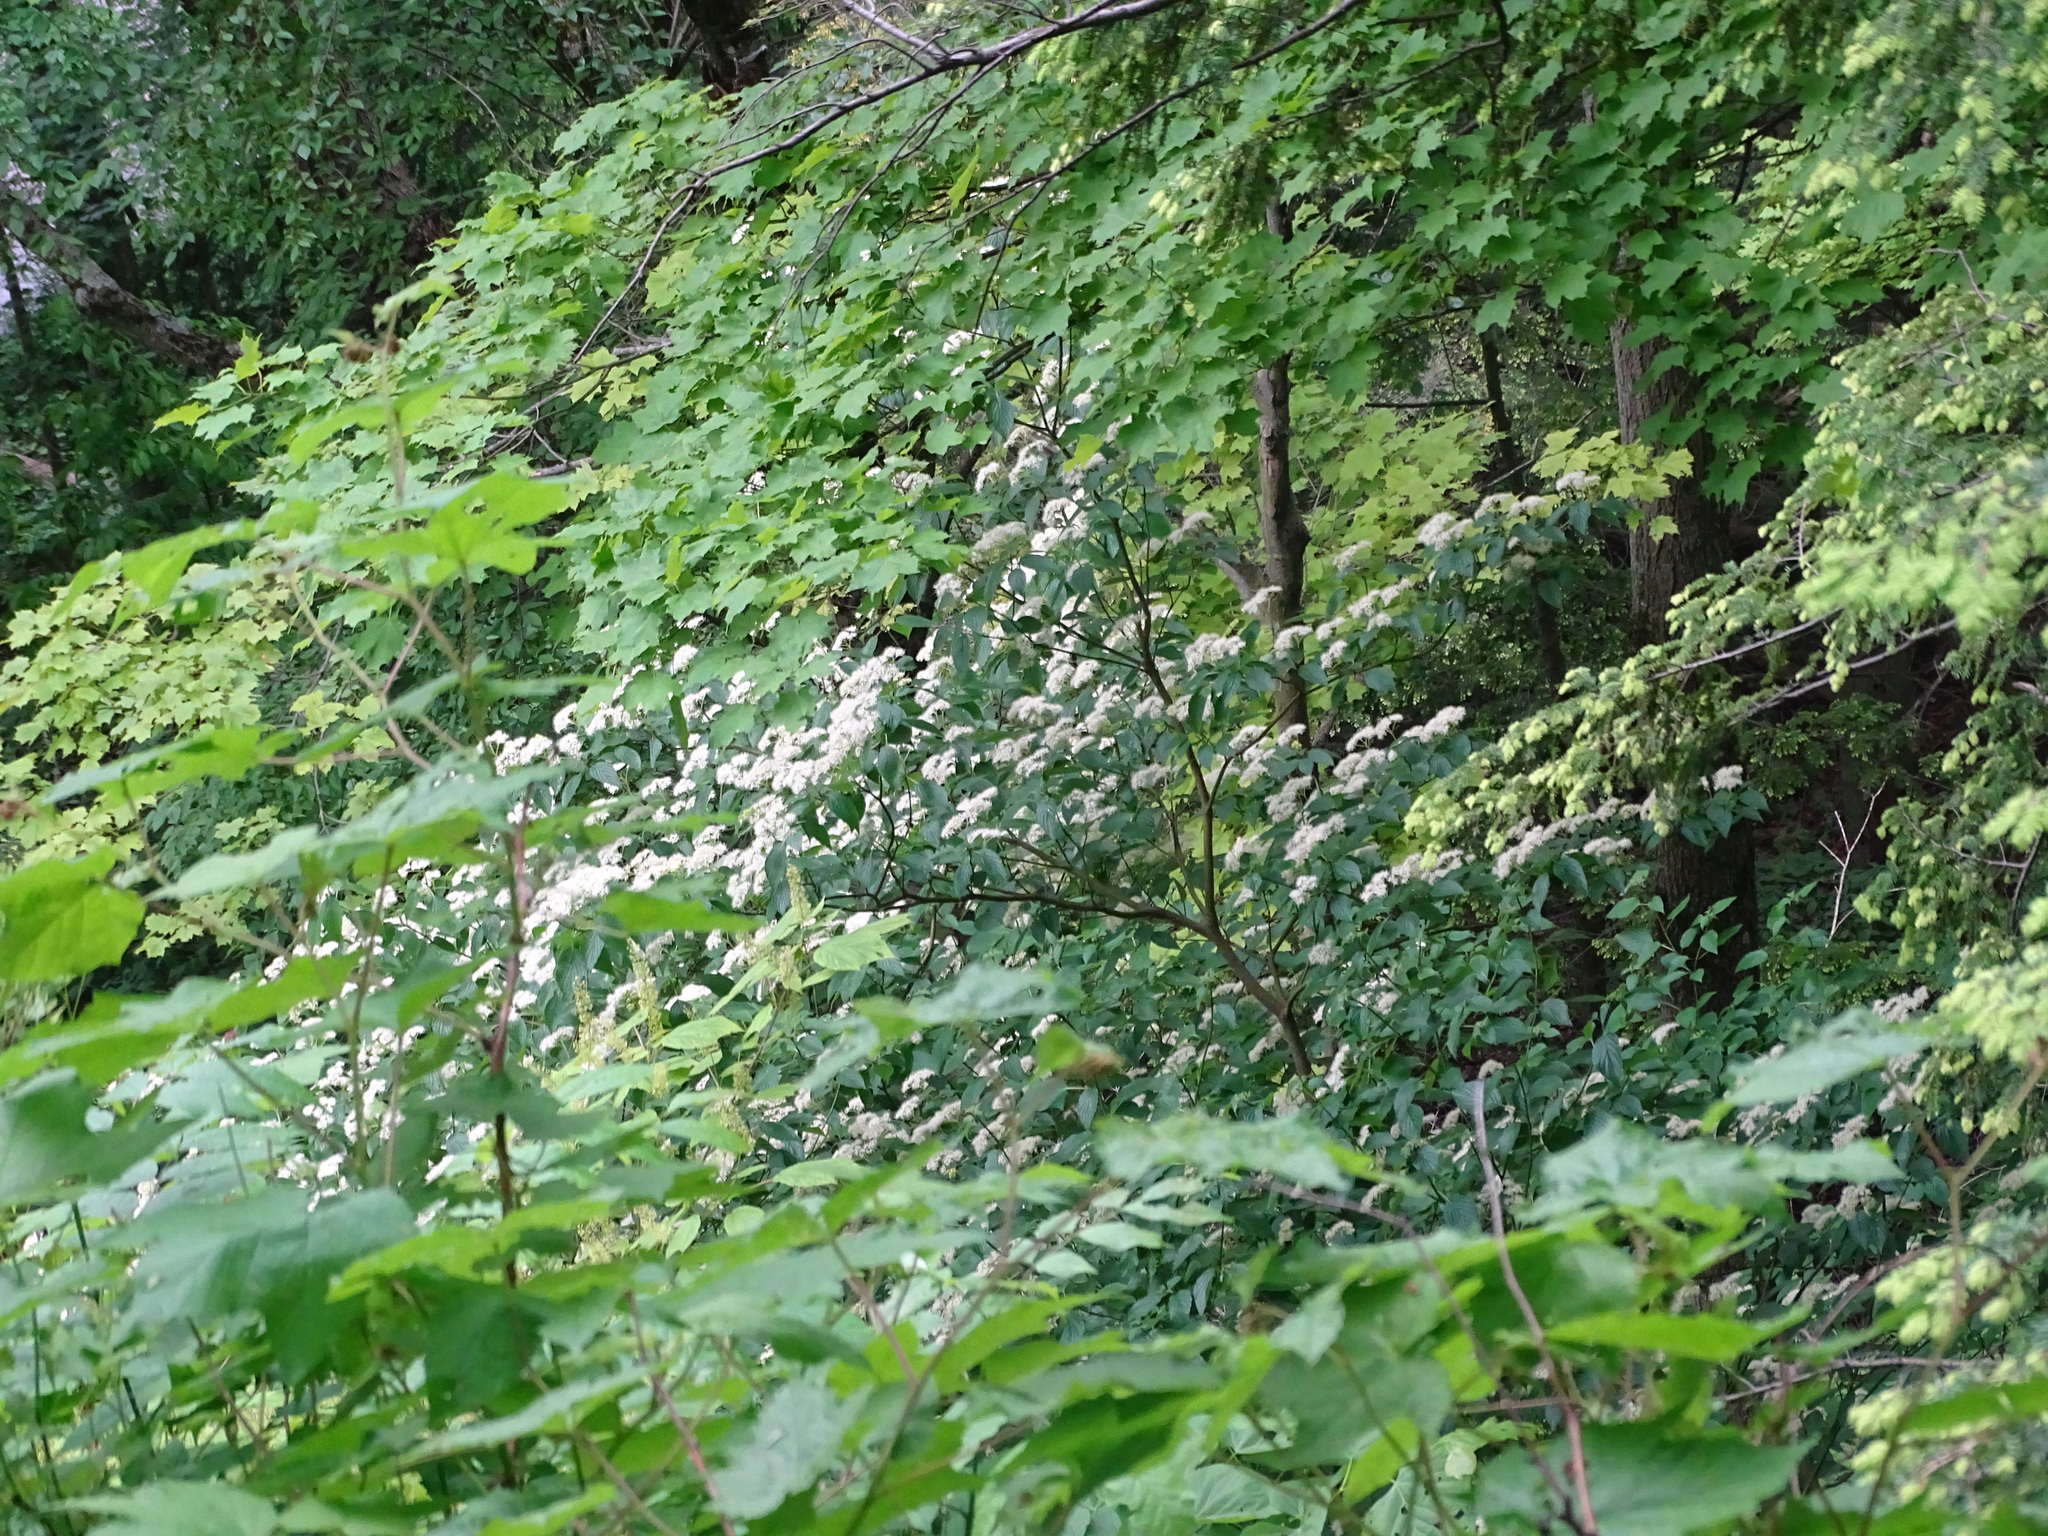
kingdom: Plantae
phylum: Tracheophyta
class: Magnoliopsida
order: Cornales
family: Cornaceae
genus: Cornus
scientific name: Cornus alternifolia
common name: Pagoda dogwood
